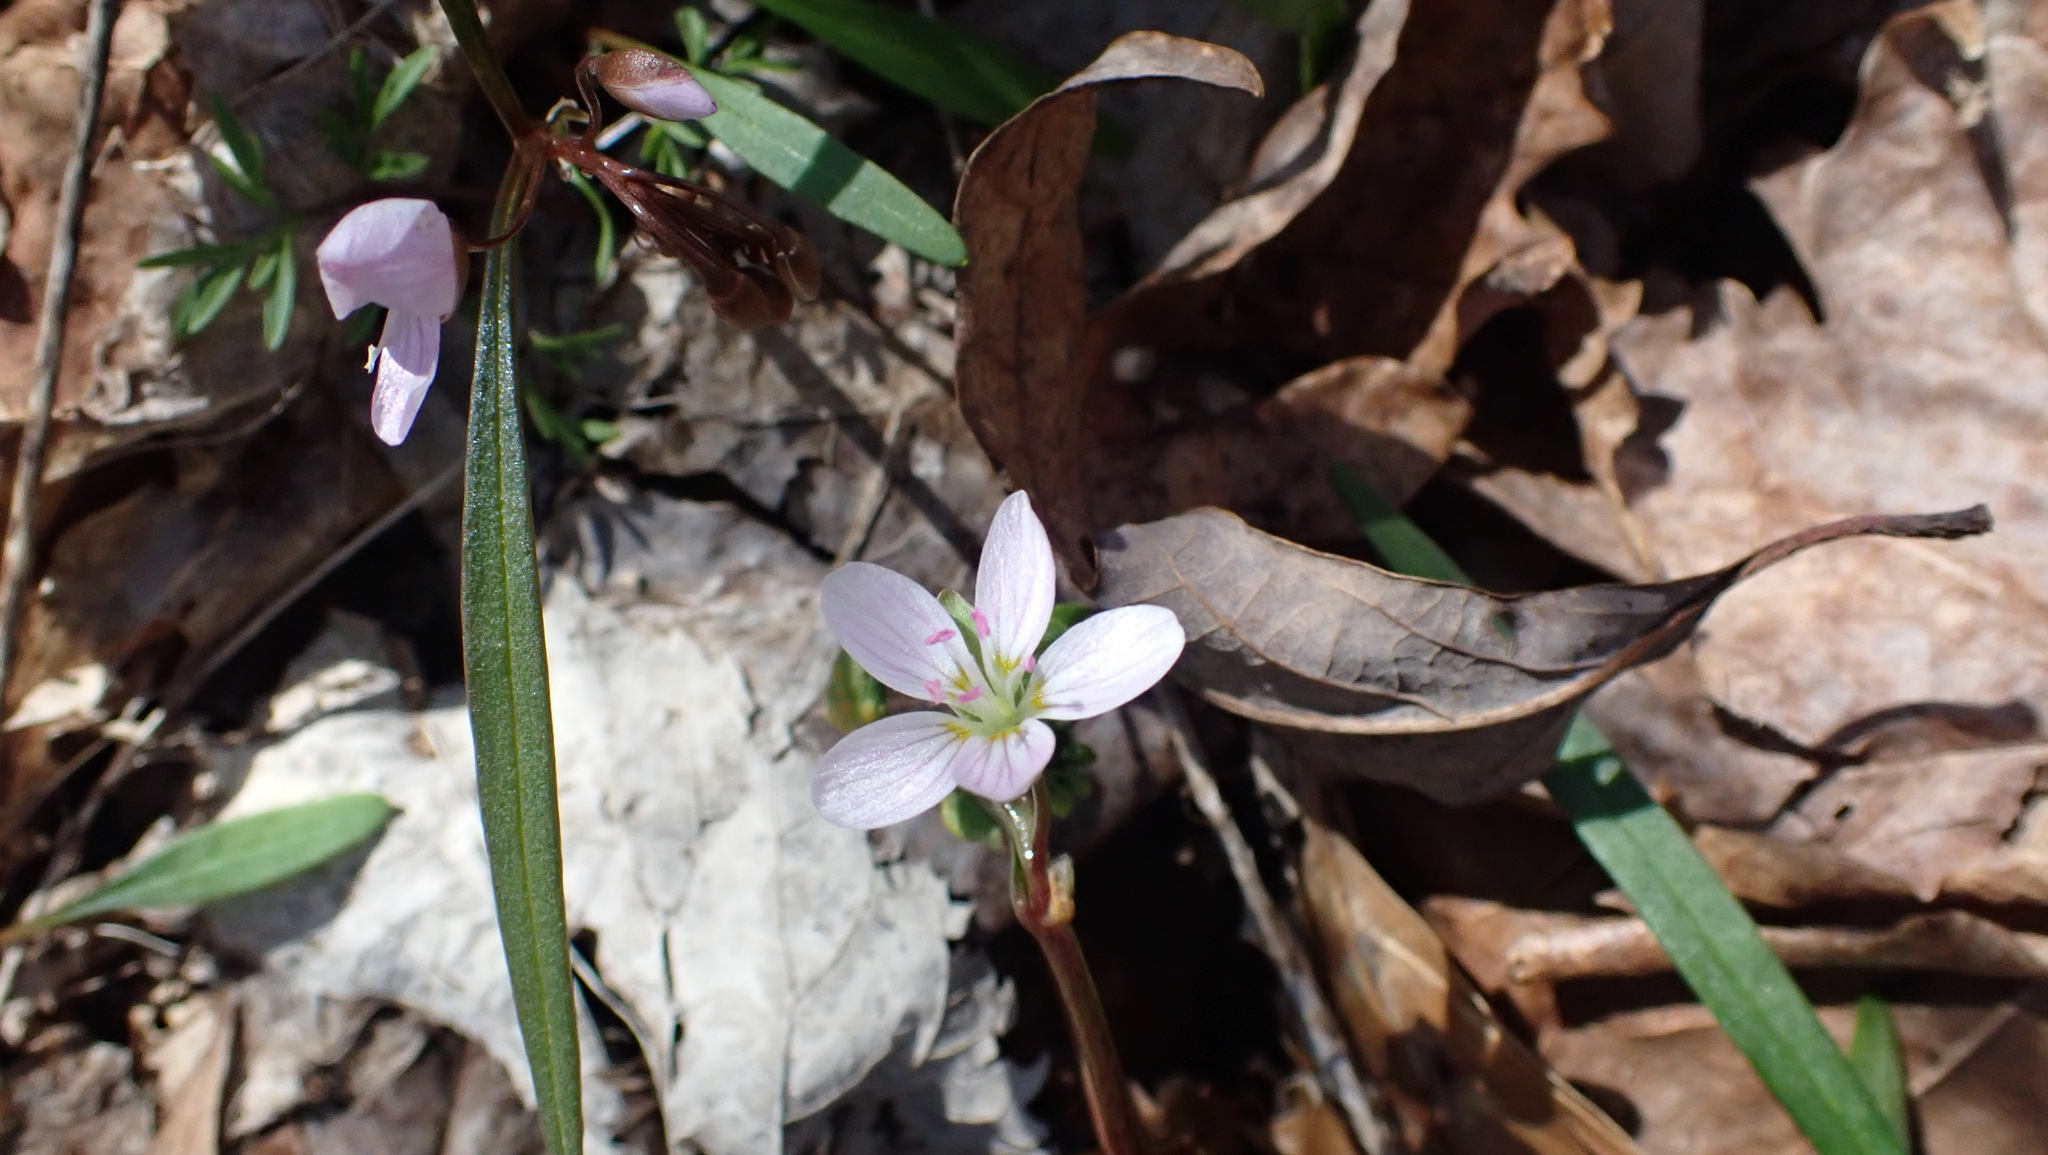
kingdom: Plantae
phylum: Tracheophyta
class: Magnoliopsida
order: Caryophyllales
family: Montiaceae
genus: Claytonia
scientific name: Claytonia virginica
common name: Virginia springbeauty
